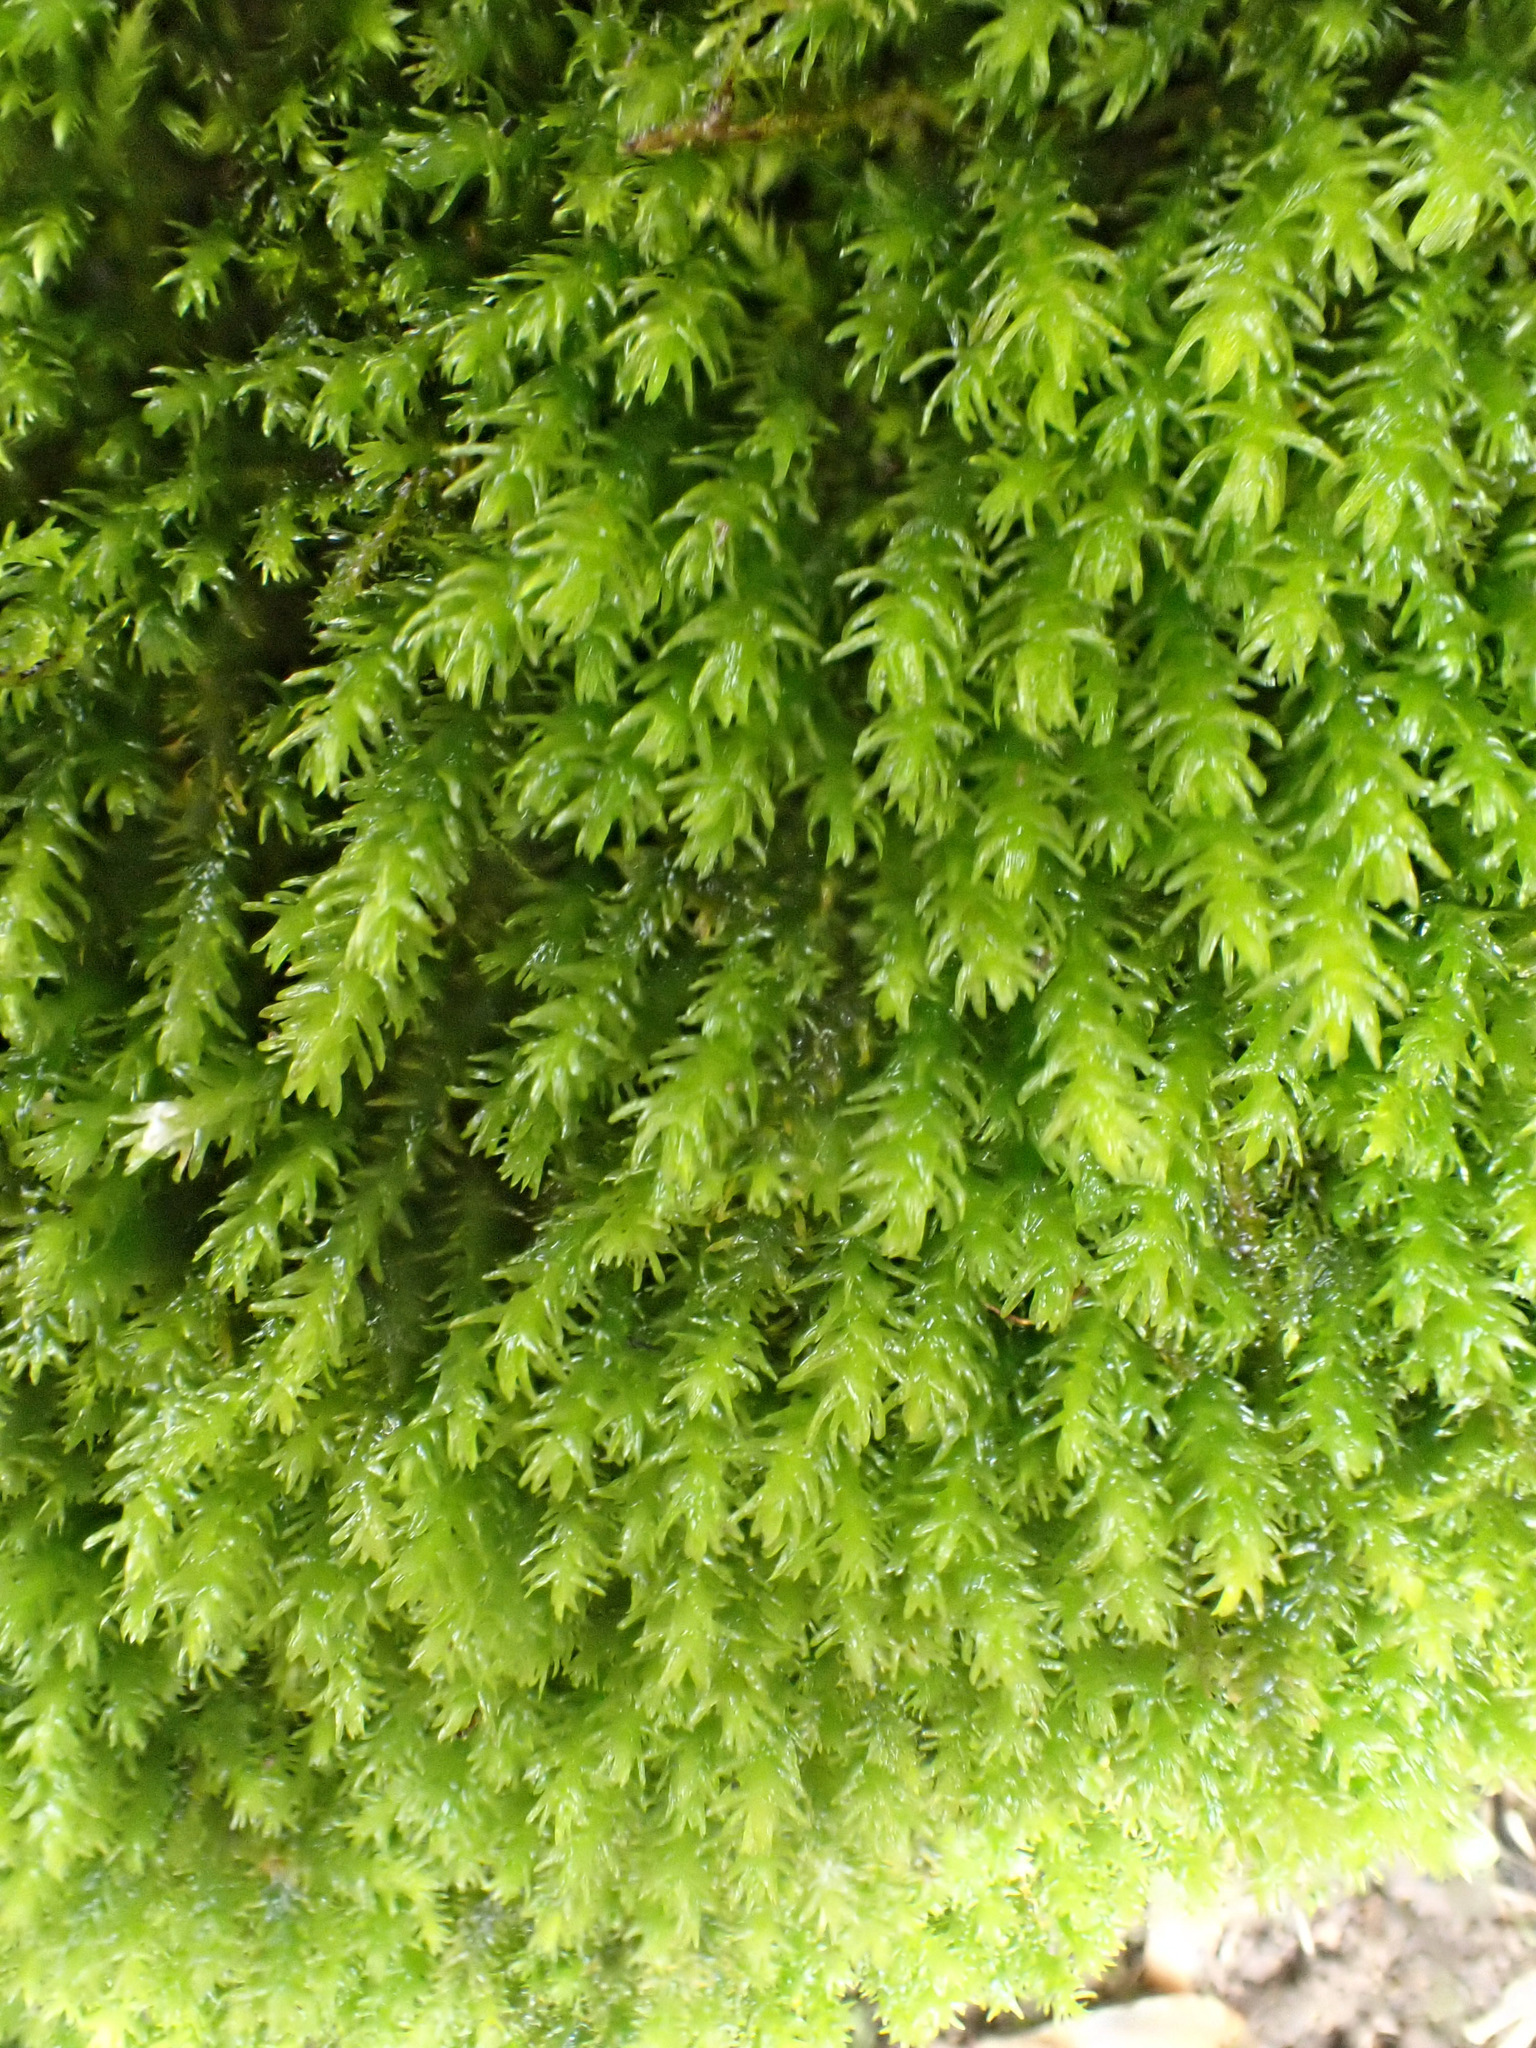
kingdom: Plantae
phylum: Bryophyta
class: Bryopsida
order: Hypnales
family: Anomodontaceae
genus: Anomodon
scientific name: Anomodon viticulosus
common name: Tall anomodon
